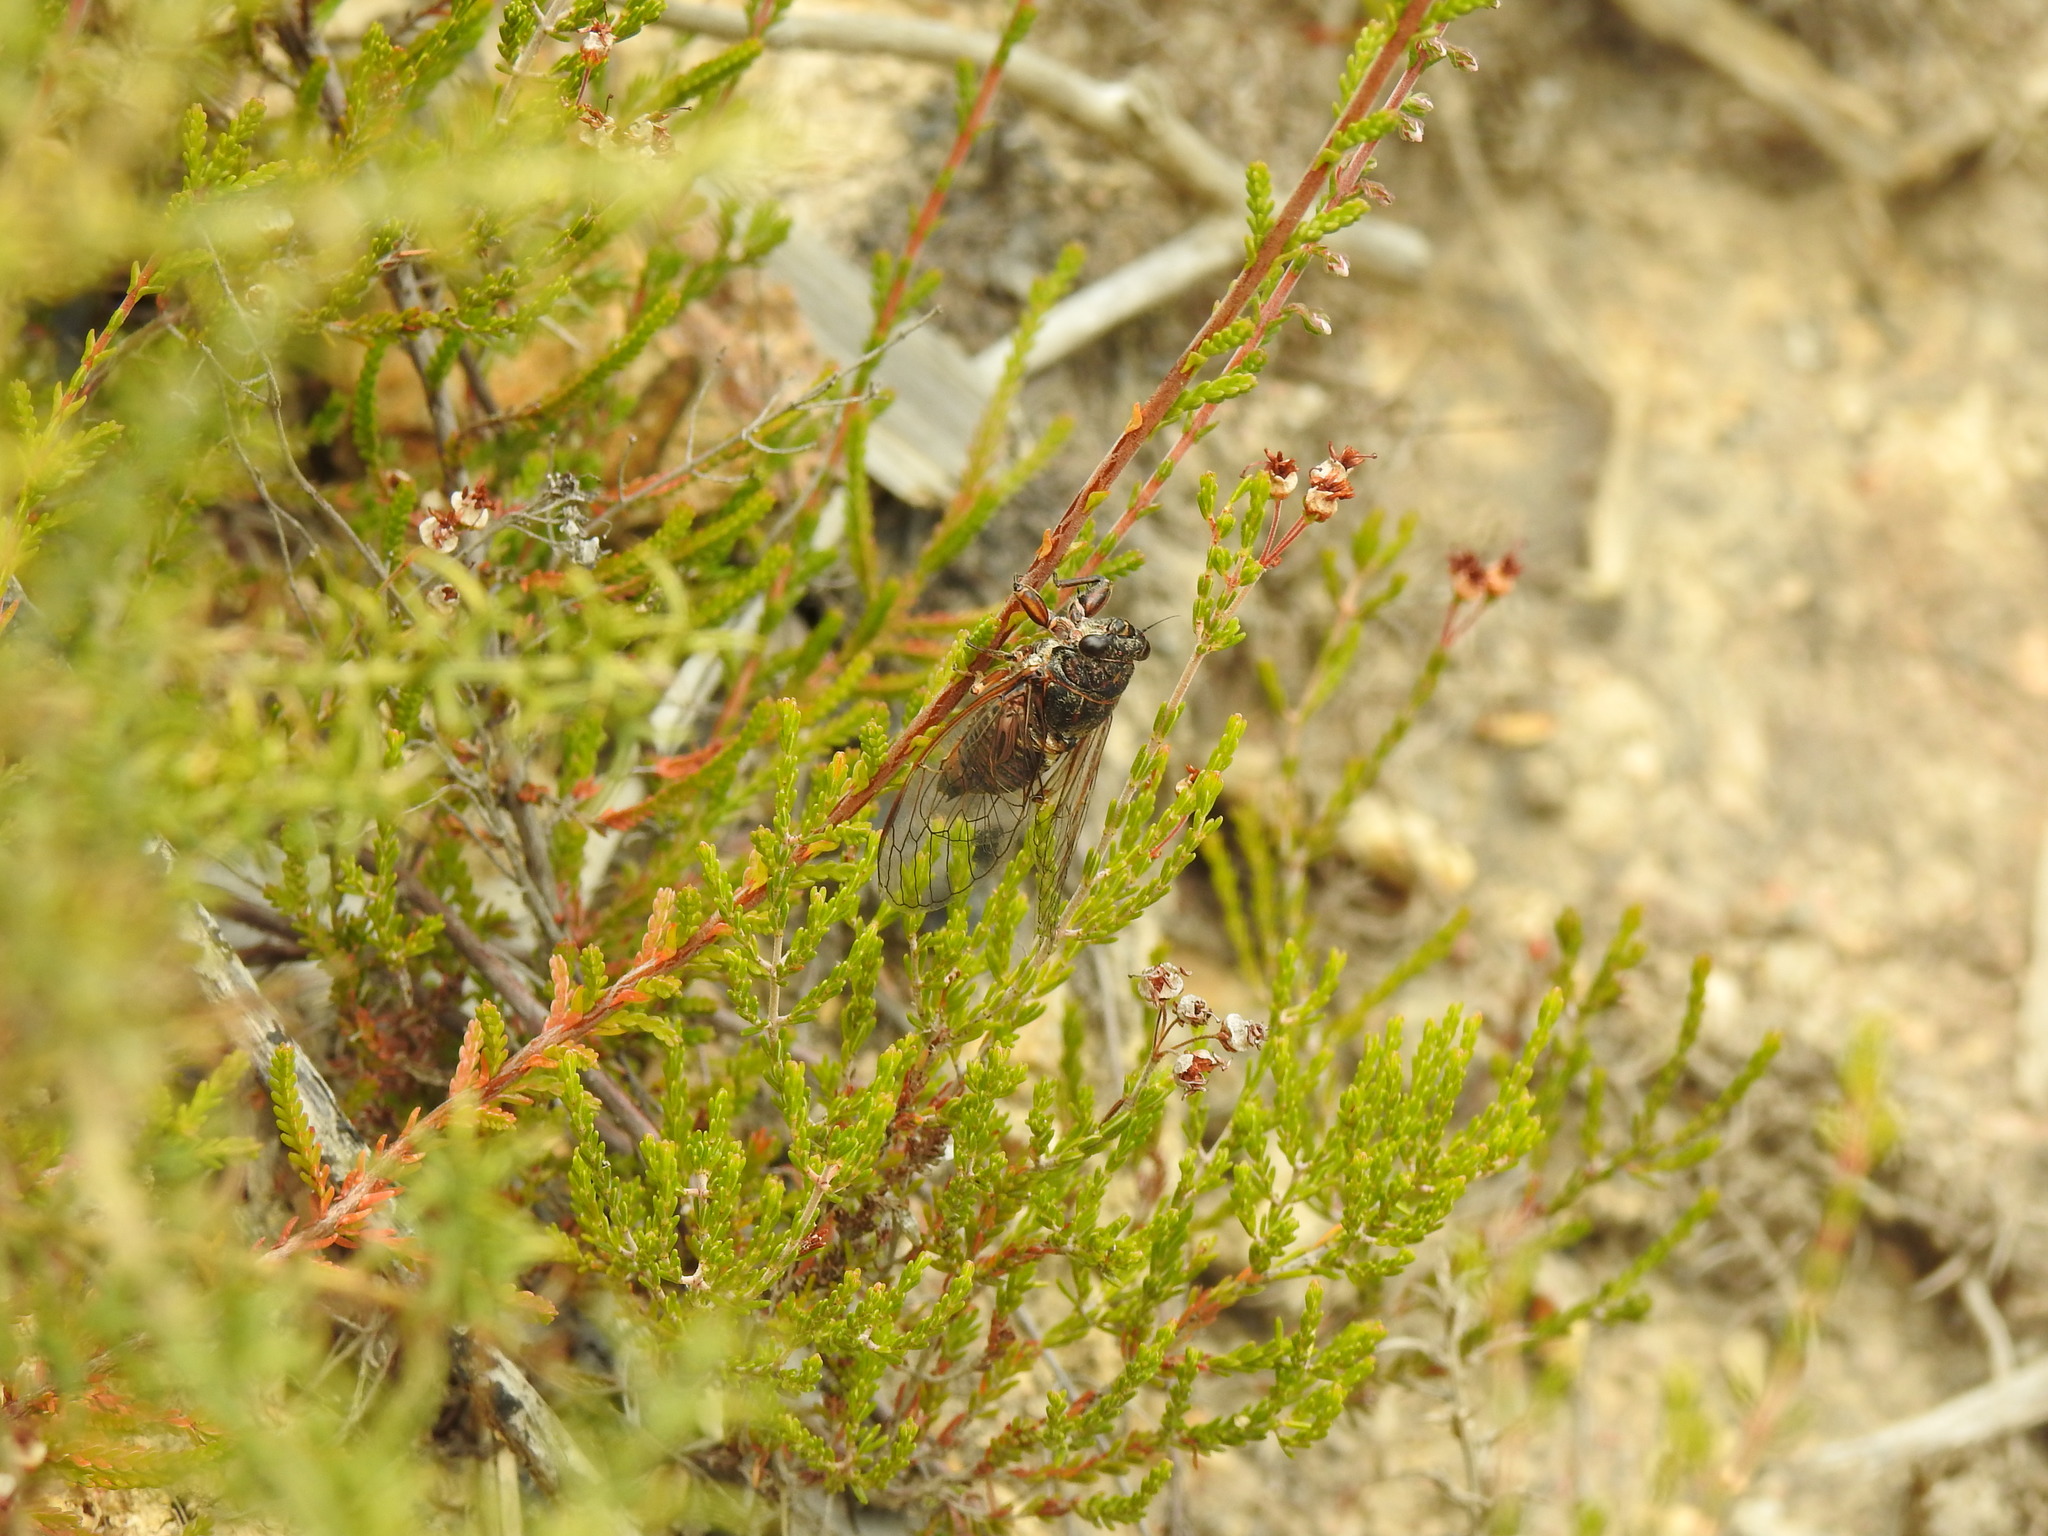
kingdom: Animalia
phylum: Arthropoda
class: Insecta
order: Hemiptera
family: Cicadidae
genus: Tettigettalna
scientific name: Tettigettalna argentata
